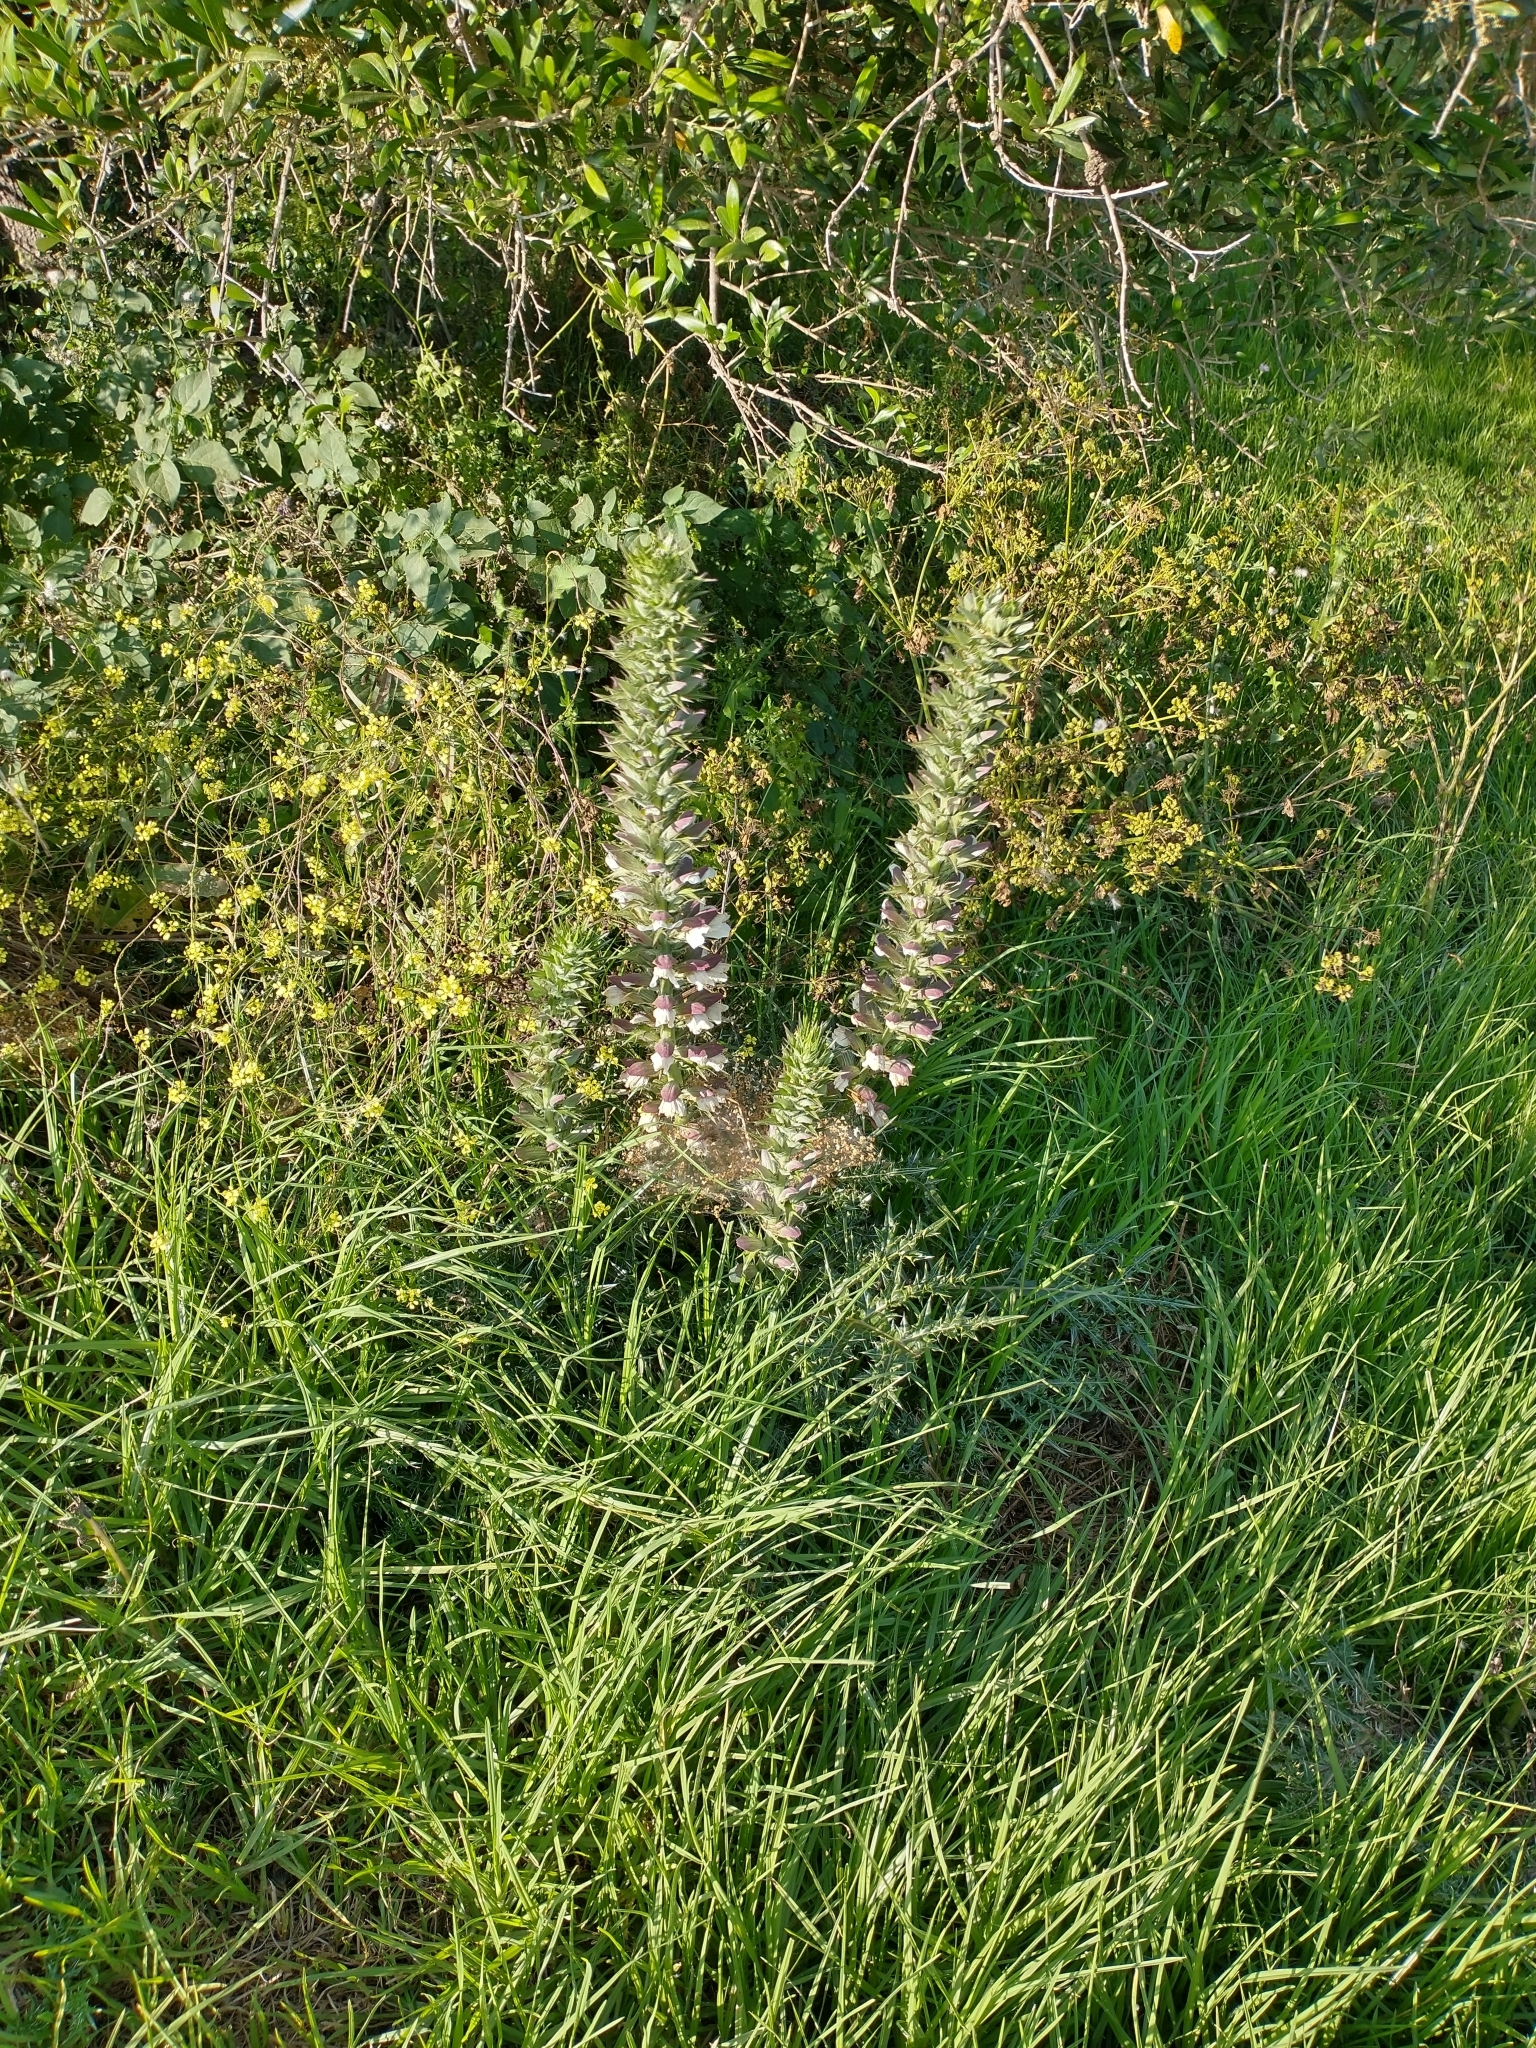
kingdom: Plantae
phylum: Tracheophyta
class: Magnoliopsida
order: Lamiales
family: Acanthaceae
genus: Acanthus
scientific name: Acanthus spinosus
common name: Spiny bear's-breech
